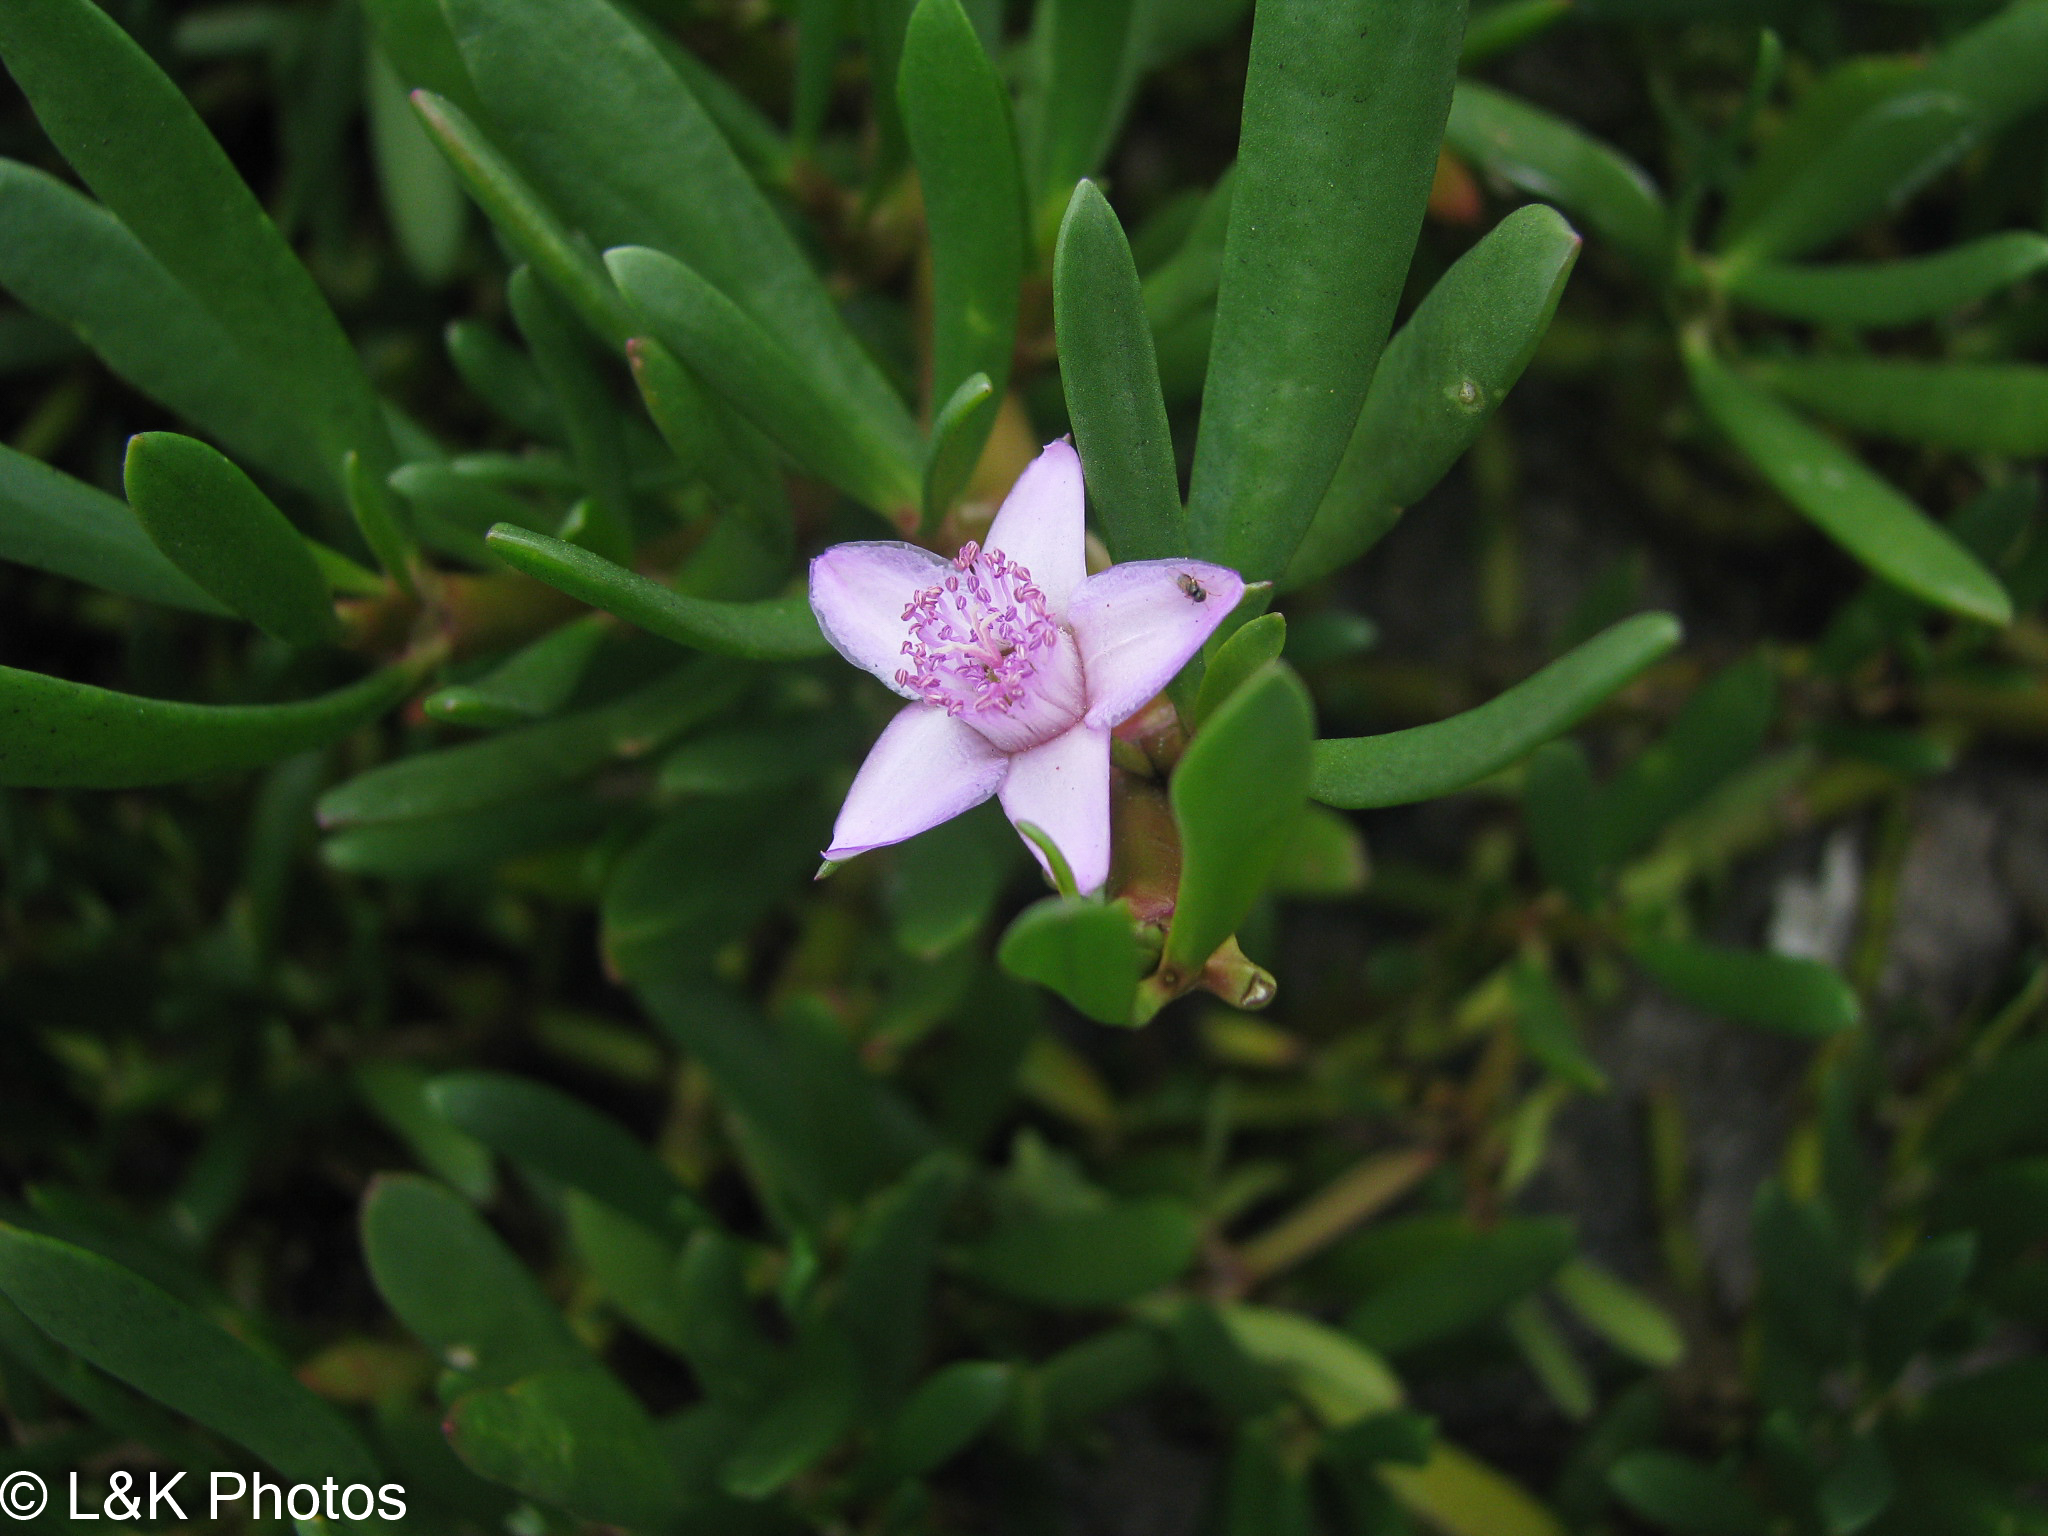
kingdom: Plantae
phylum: Tracheophyta
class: Magnoliopsida
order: Caryophyllales
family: Aizoaceae
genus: Sesuvium
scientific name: Sesuvium portulacastrum
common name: Sea-purslane
